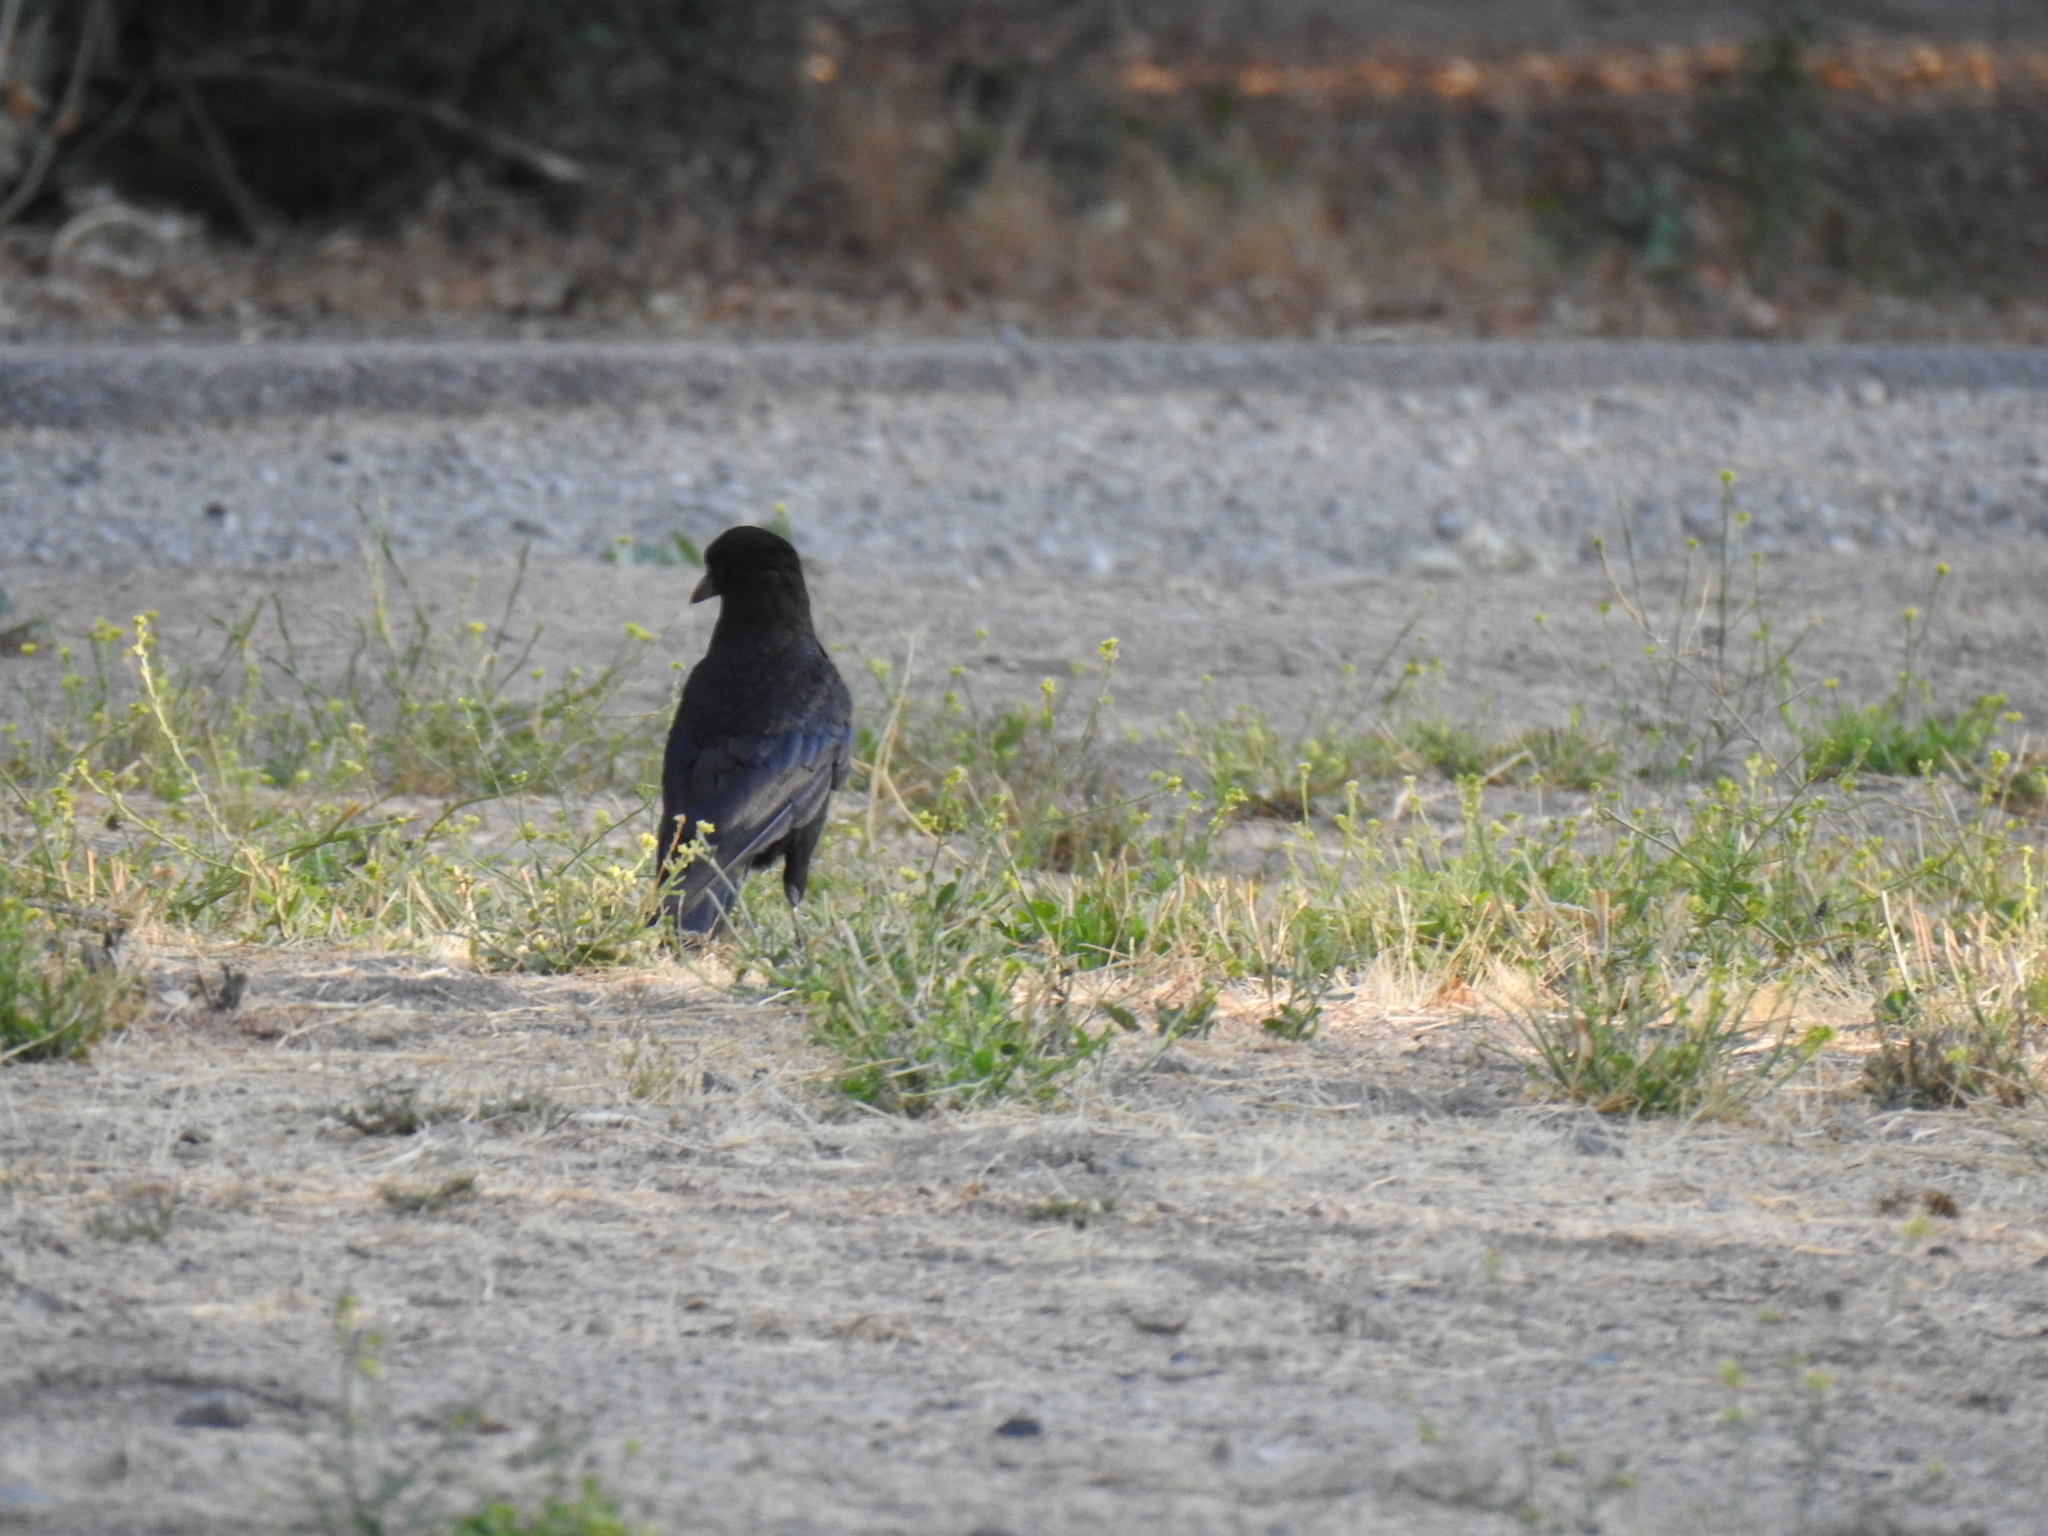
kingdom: Animalia
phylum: Chordata
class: Aves
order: Passeriformes
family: Corvidae
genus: Corvus
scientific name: Corvus brachyrhynchos
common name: American crow
